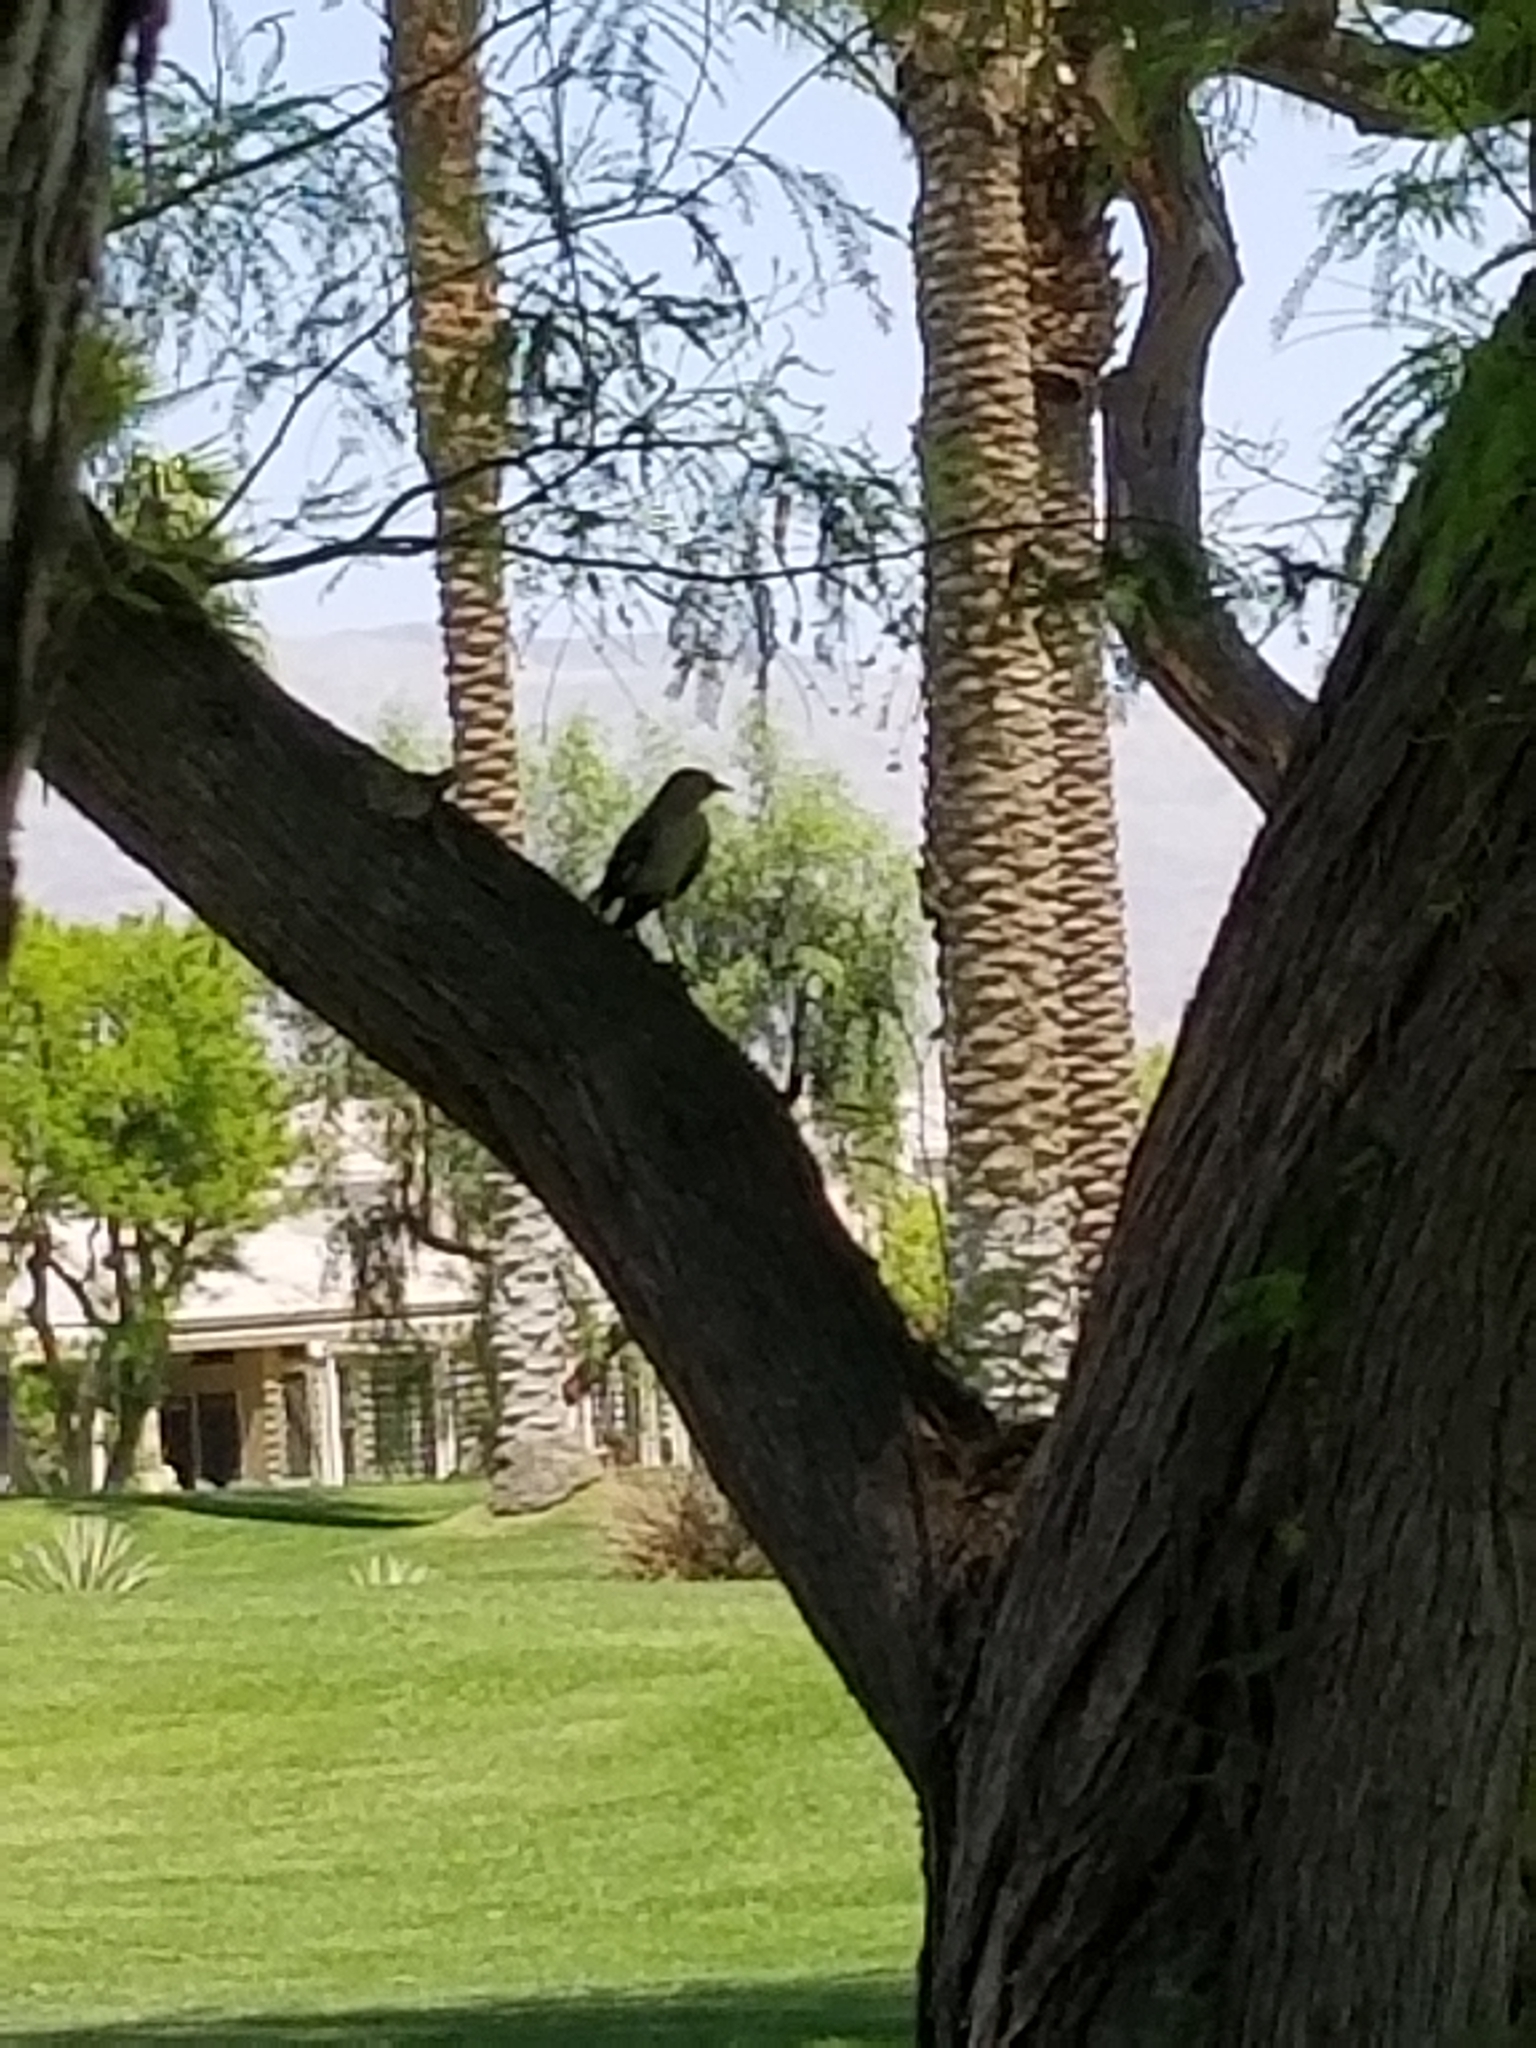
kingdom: Animalia
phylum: Chordata
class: Aves
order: Passeriformes
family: Mimidae
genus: Mimus
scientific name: Mimus polyglottos
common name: Northern mockingbird
